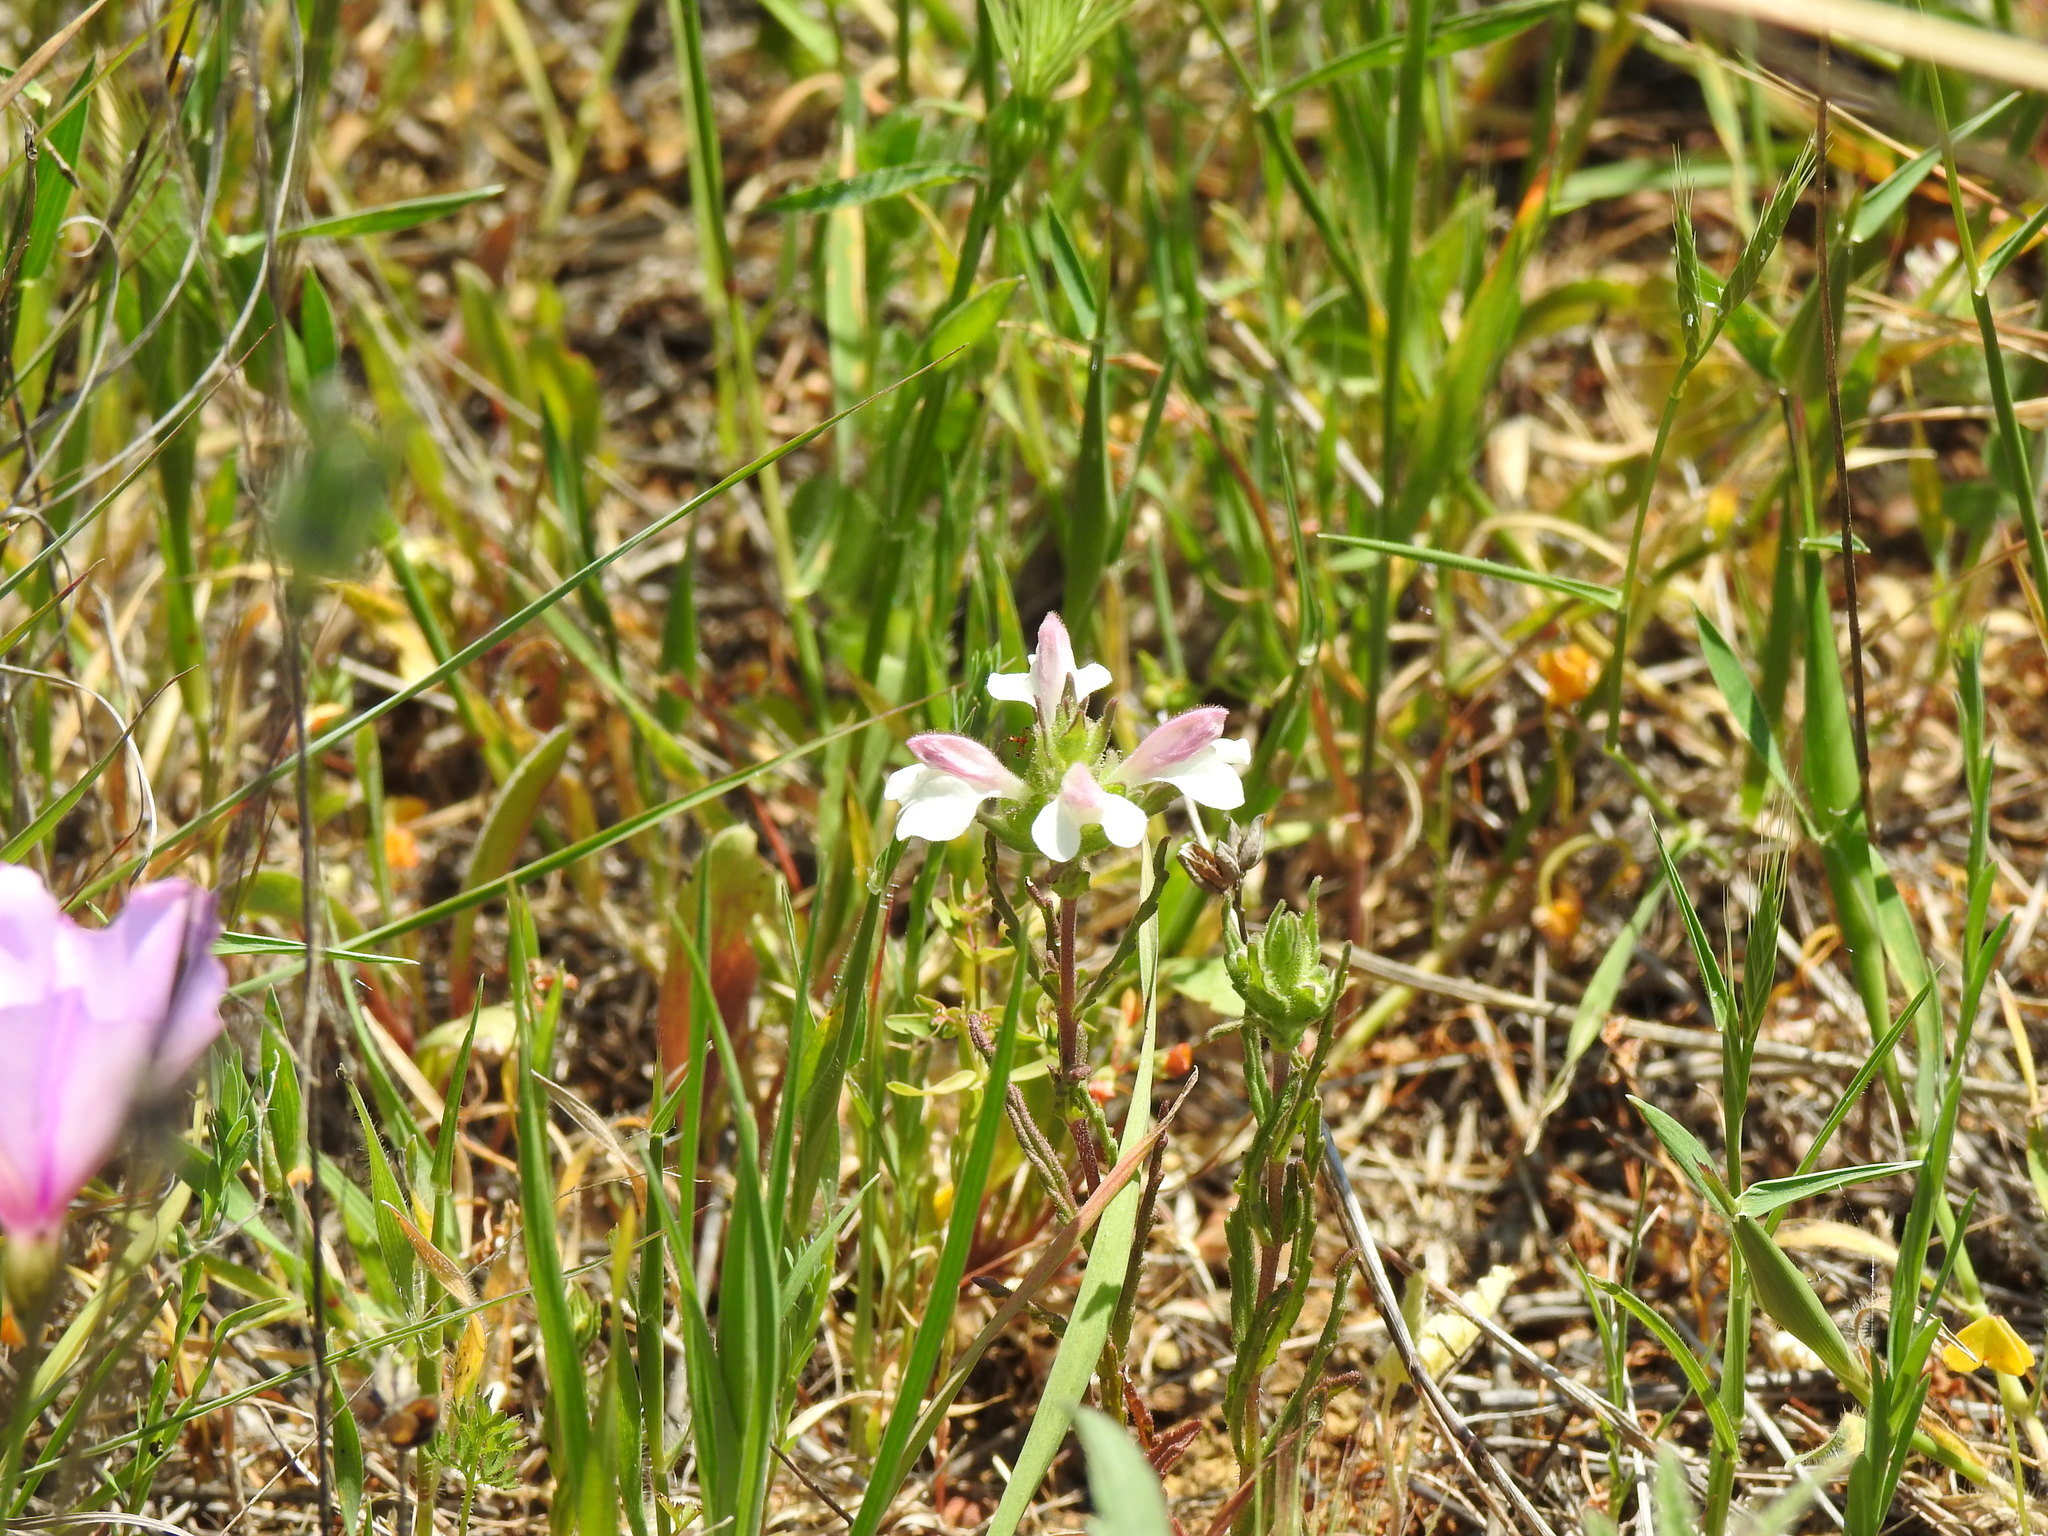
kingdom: Plantae
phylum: Tracheophyta
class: Magnoliopsida
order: Lamiales
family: Orobanchaceae
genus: Bellardia
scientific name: Bellardia trixago
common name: Mediterranean lineseed
